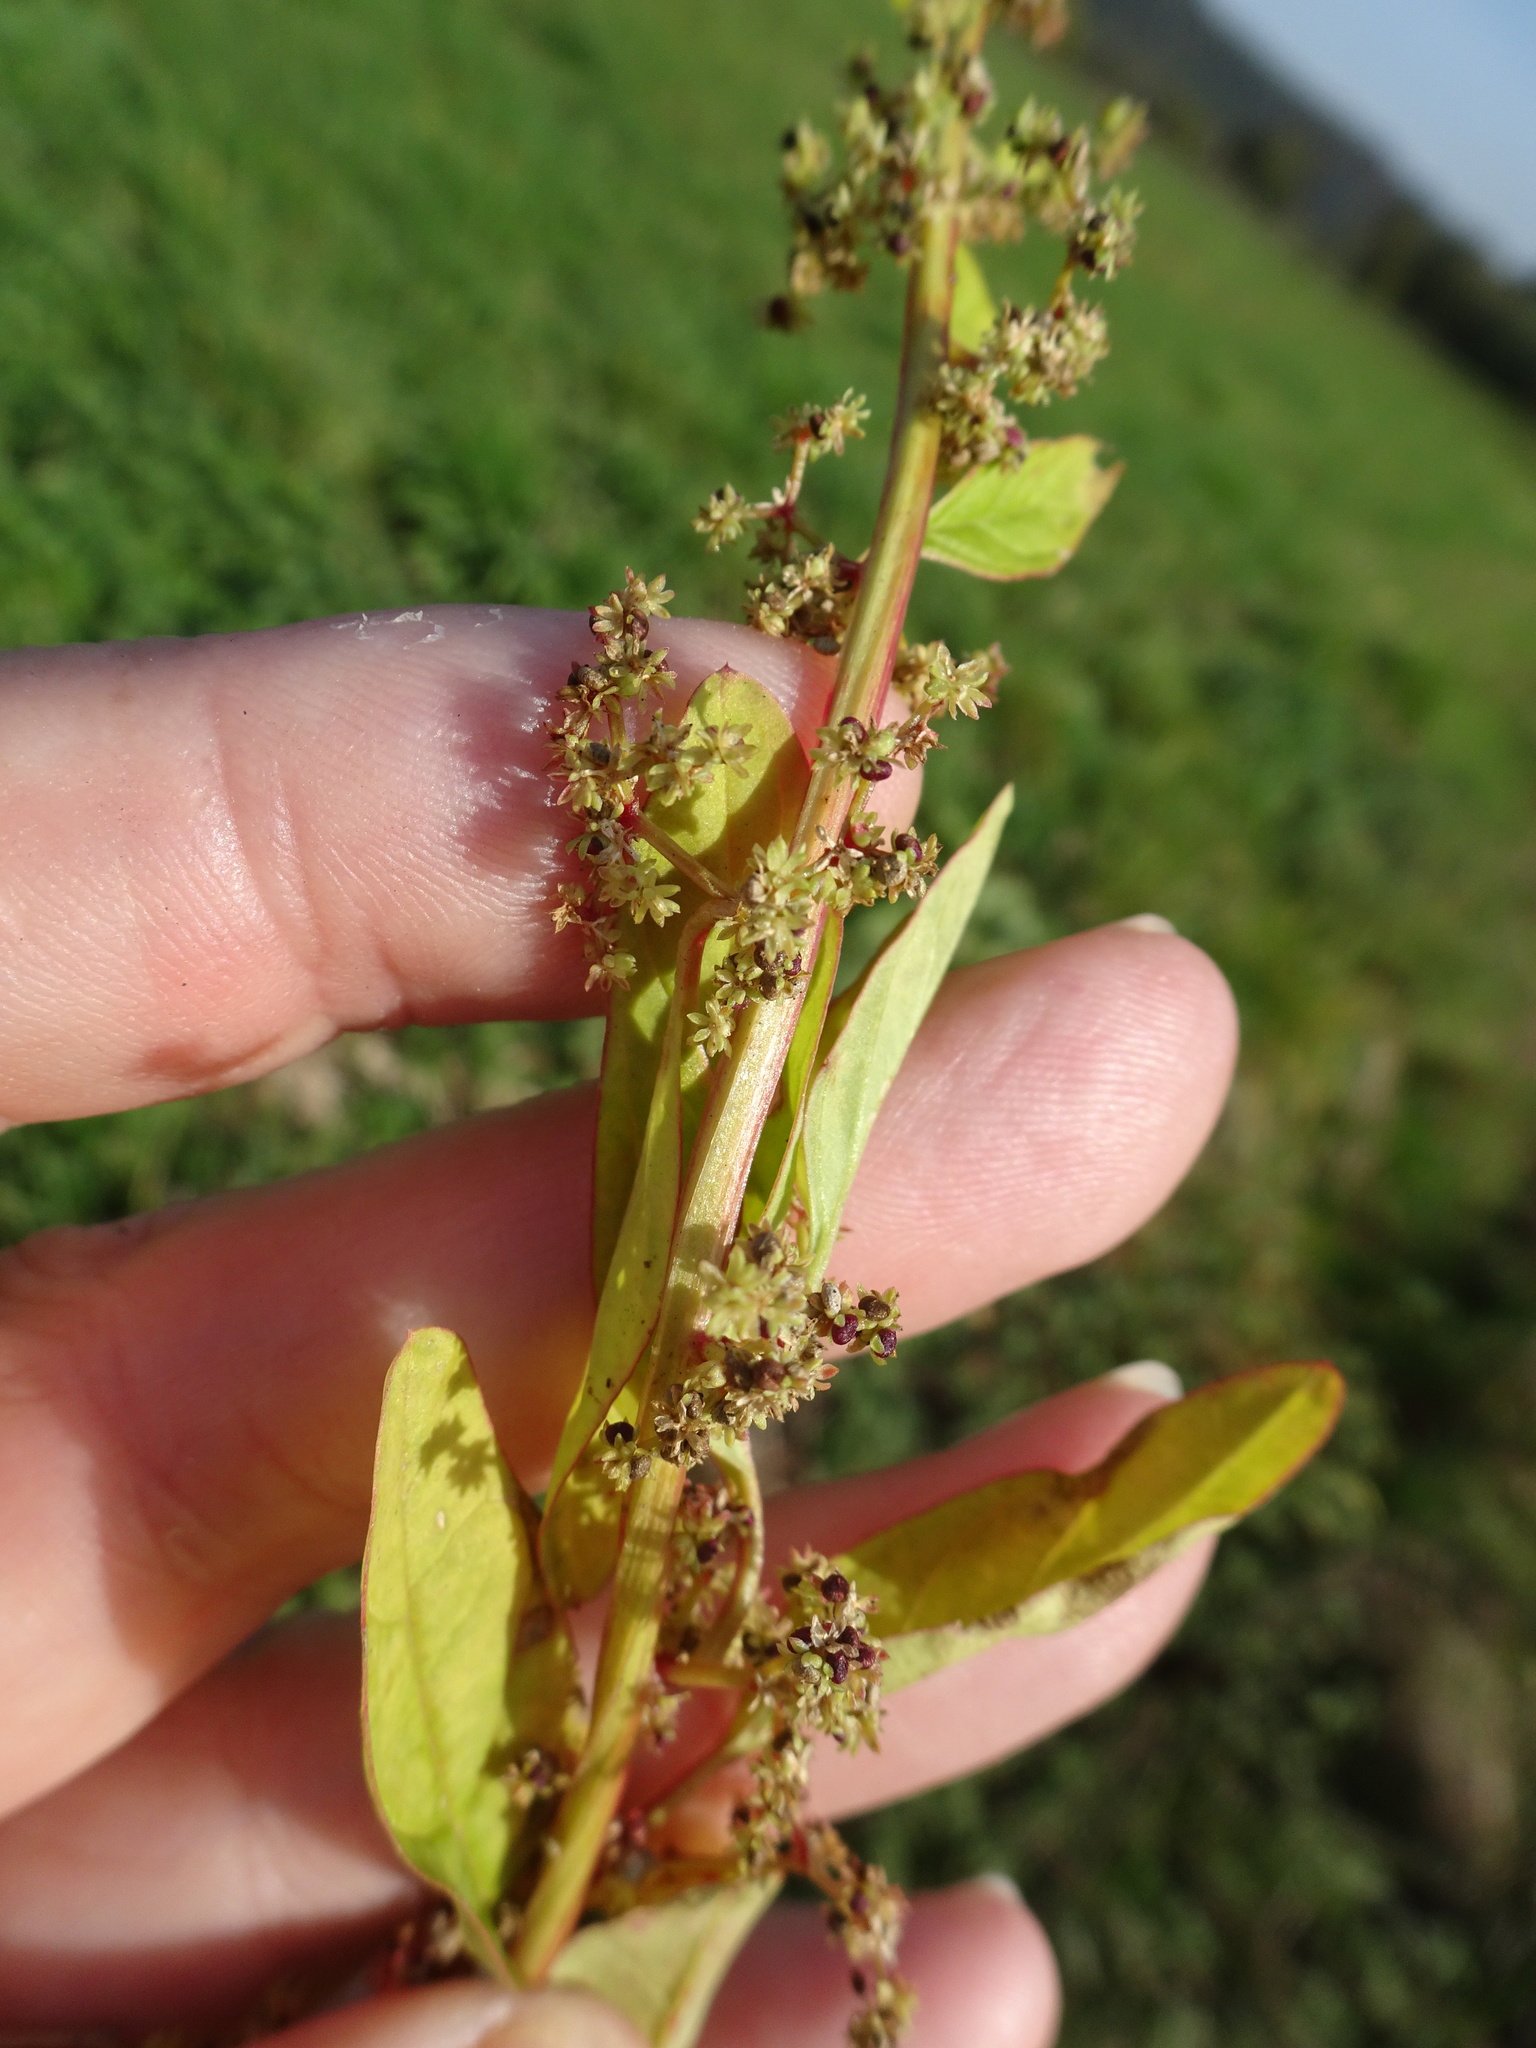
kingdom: Plantae
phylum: Tracheophyta
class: Magnoliopsida
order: Caryophyllales
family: Amaranthaceae
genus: Lipandra
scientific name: Lipandra polysperma
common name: Many-seed goosefoot
